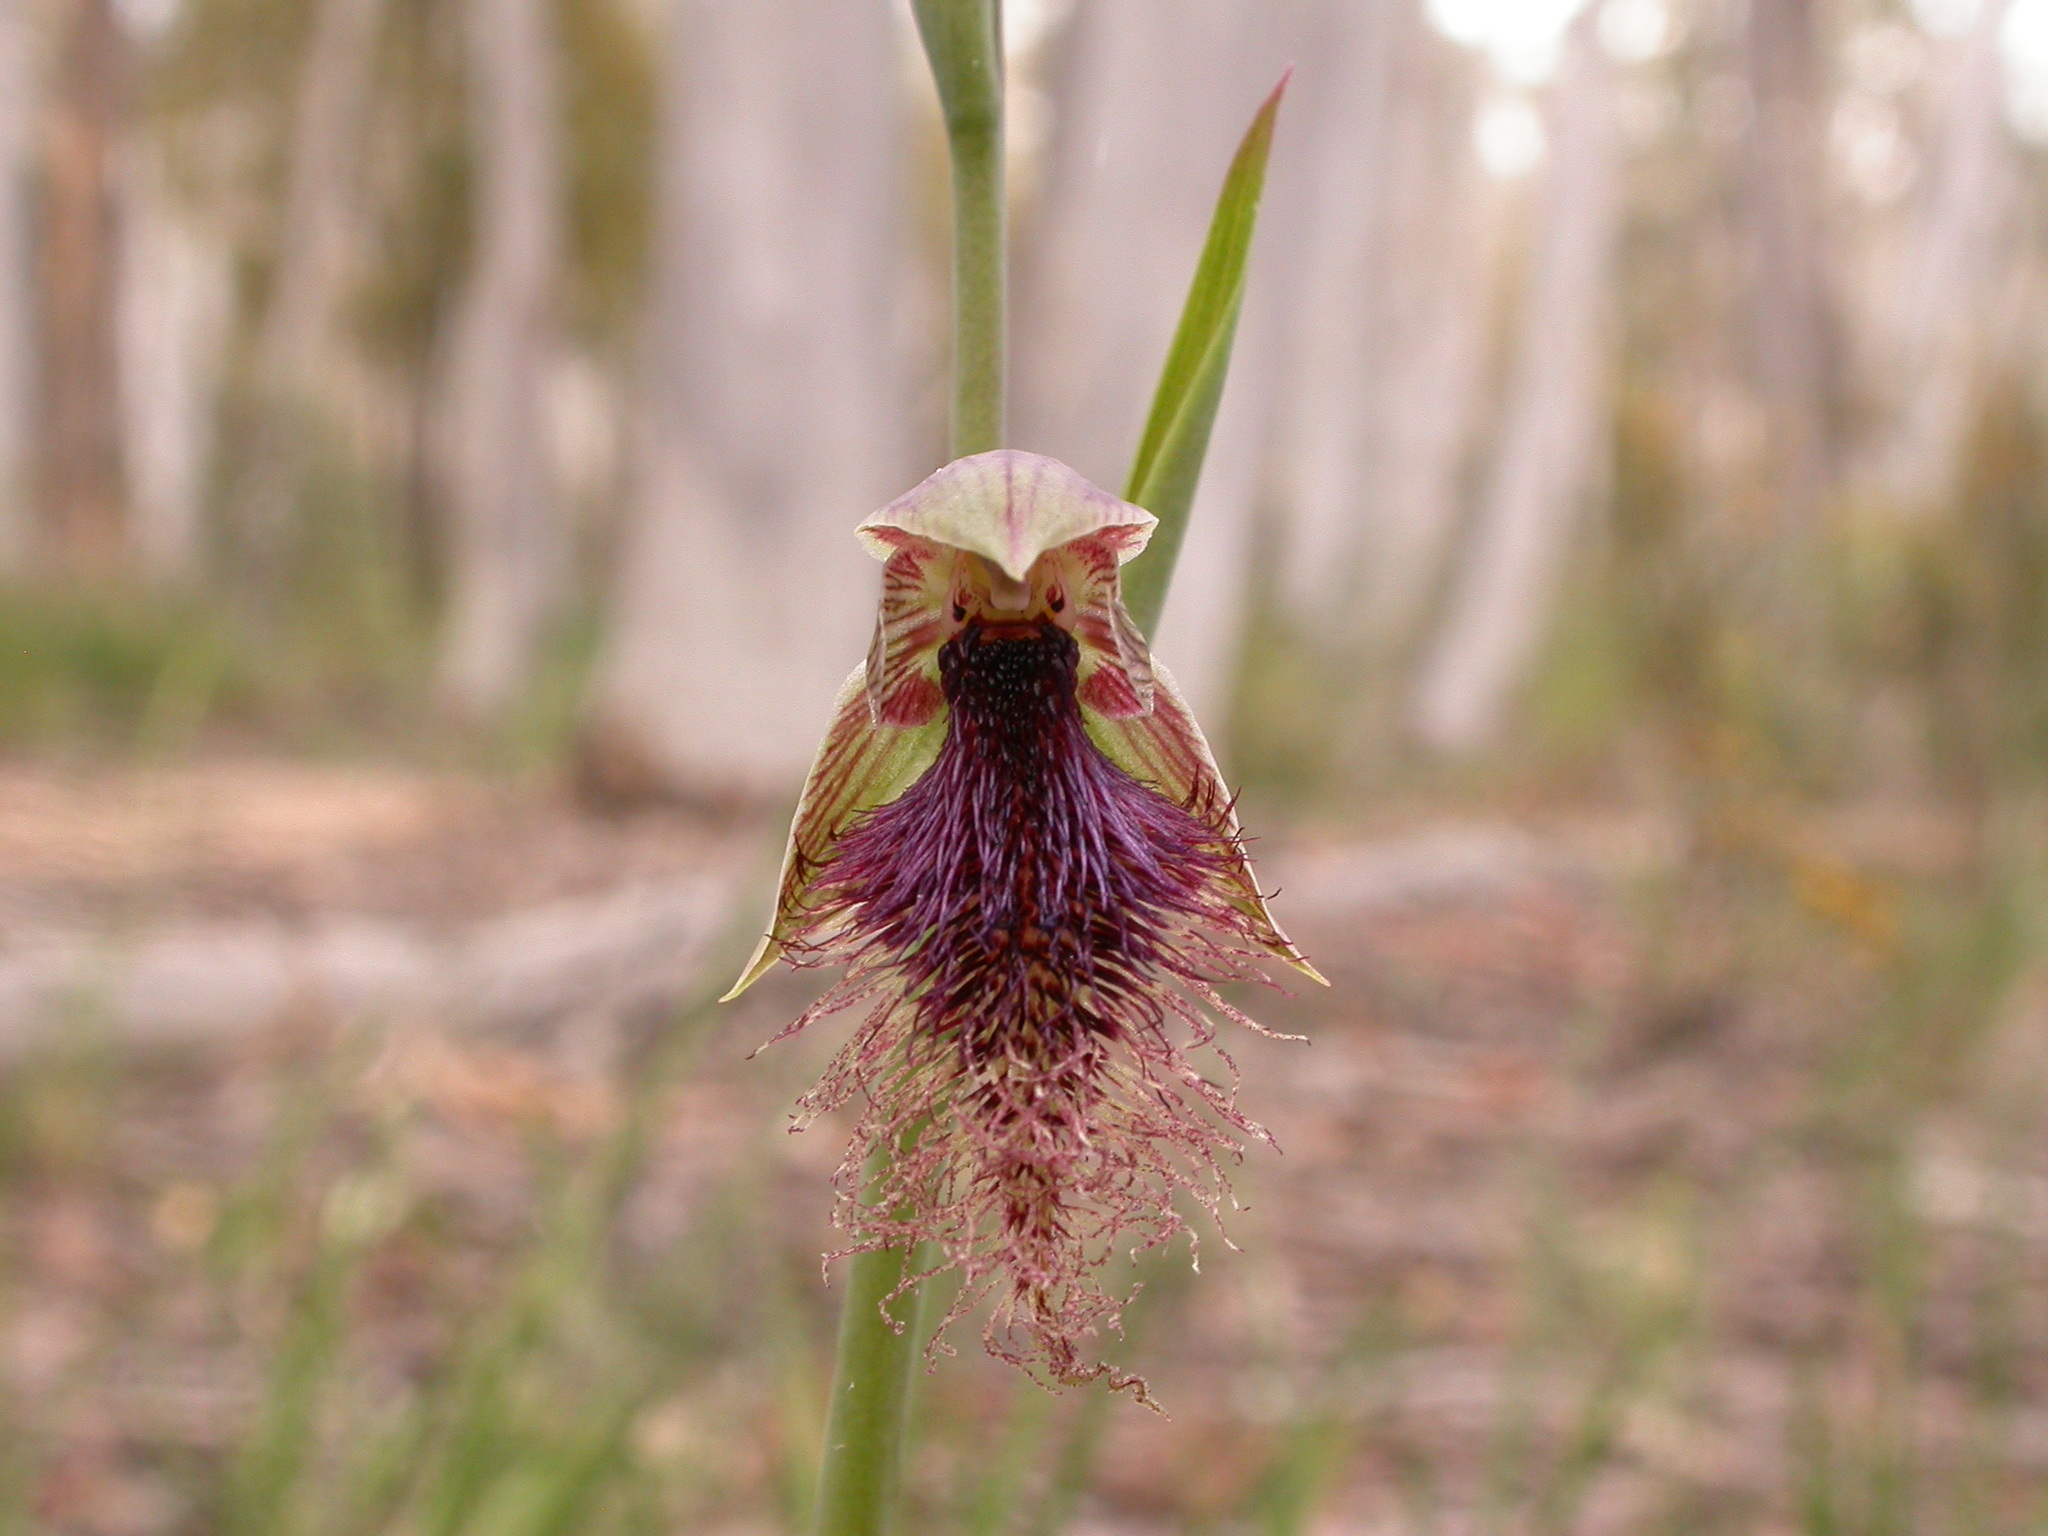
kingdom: Plantae
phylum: Tracheophyta
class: Liliopsida
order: Asparagales
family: Orchidaceae
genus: Calochilus
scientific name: Calochilus robertsonii
